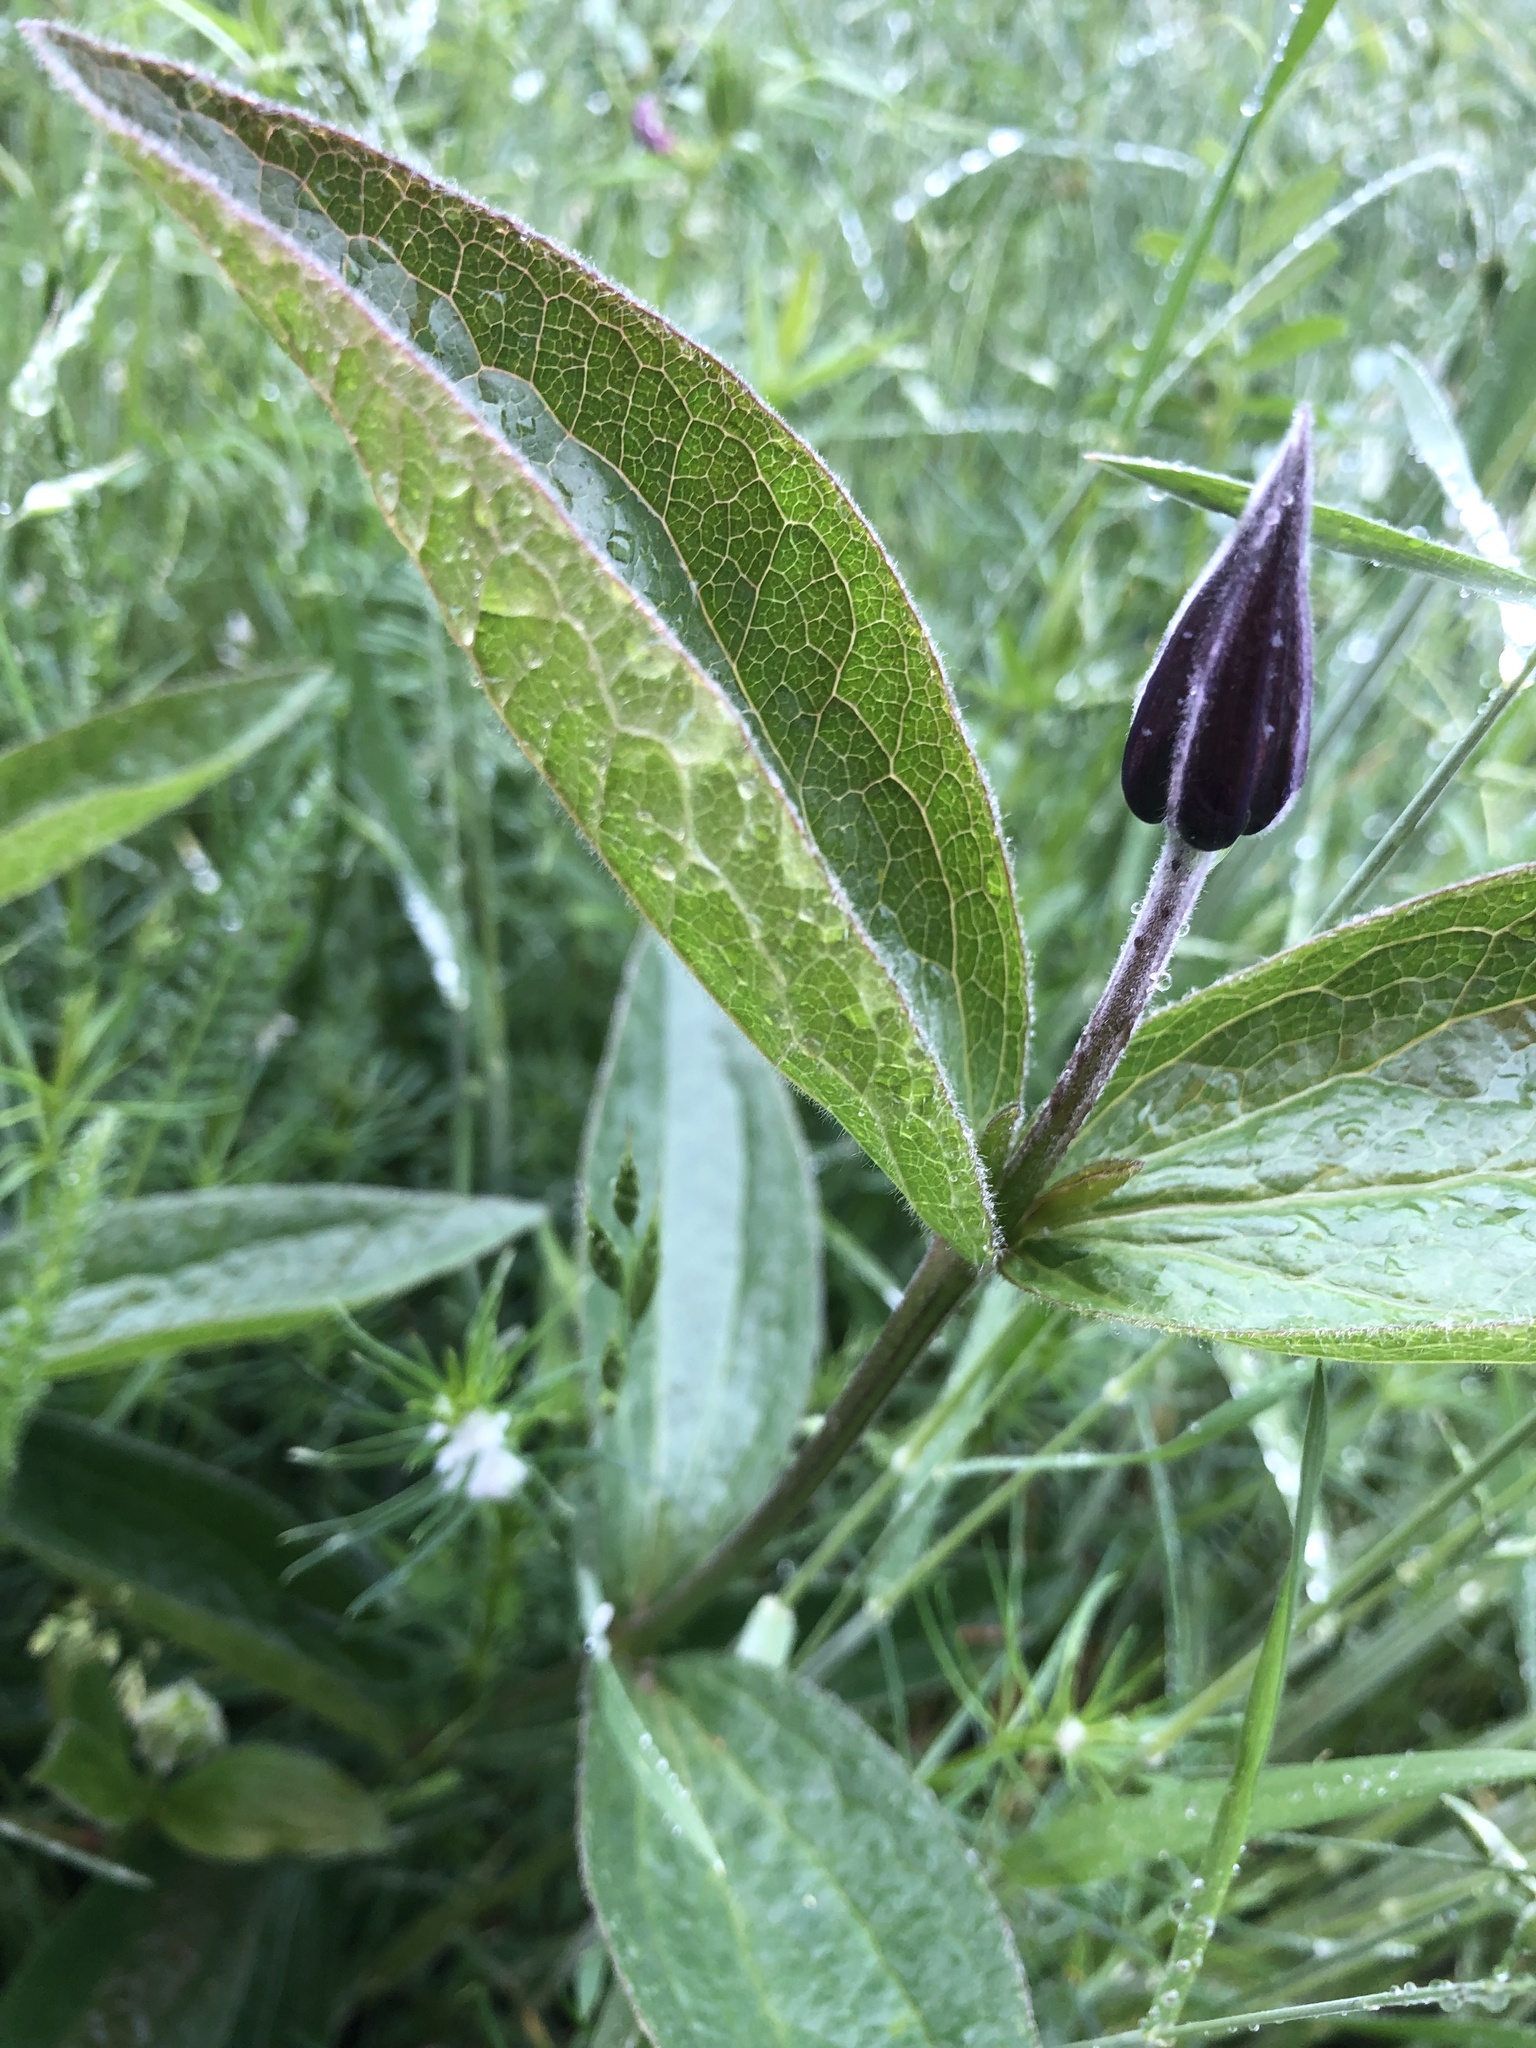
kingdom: Plantae
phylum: Tracheophyta
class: Magnoliopsida
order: Ranunculales
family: Ranunculaceae
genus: Clematis
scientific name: Clematis integrifolia
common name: Solitary clematis
